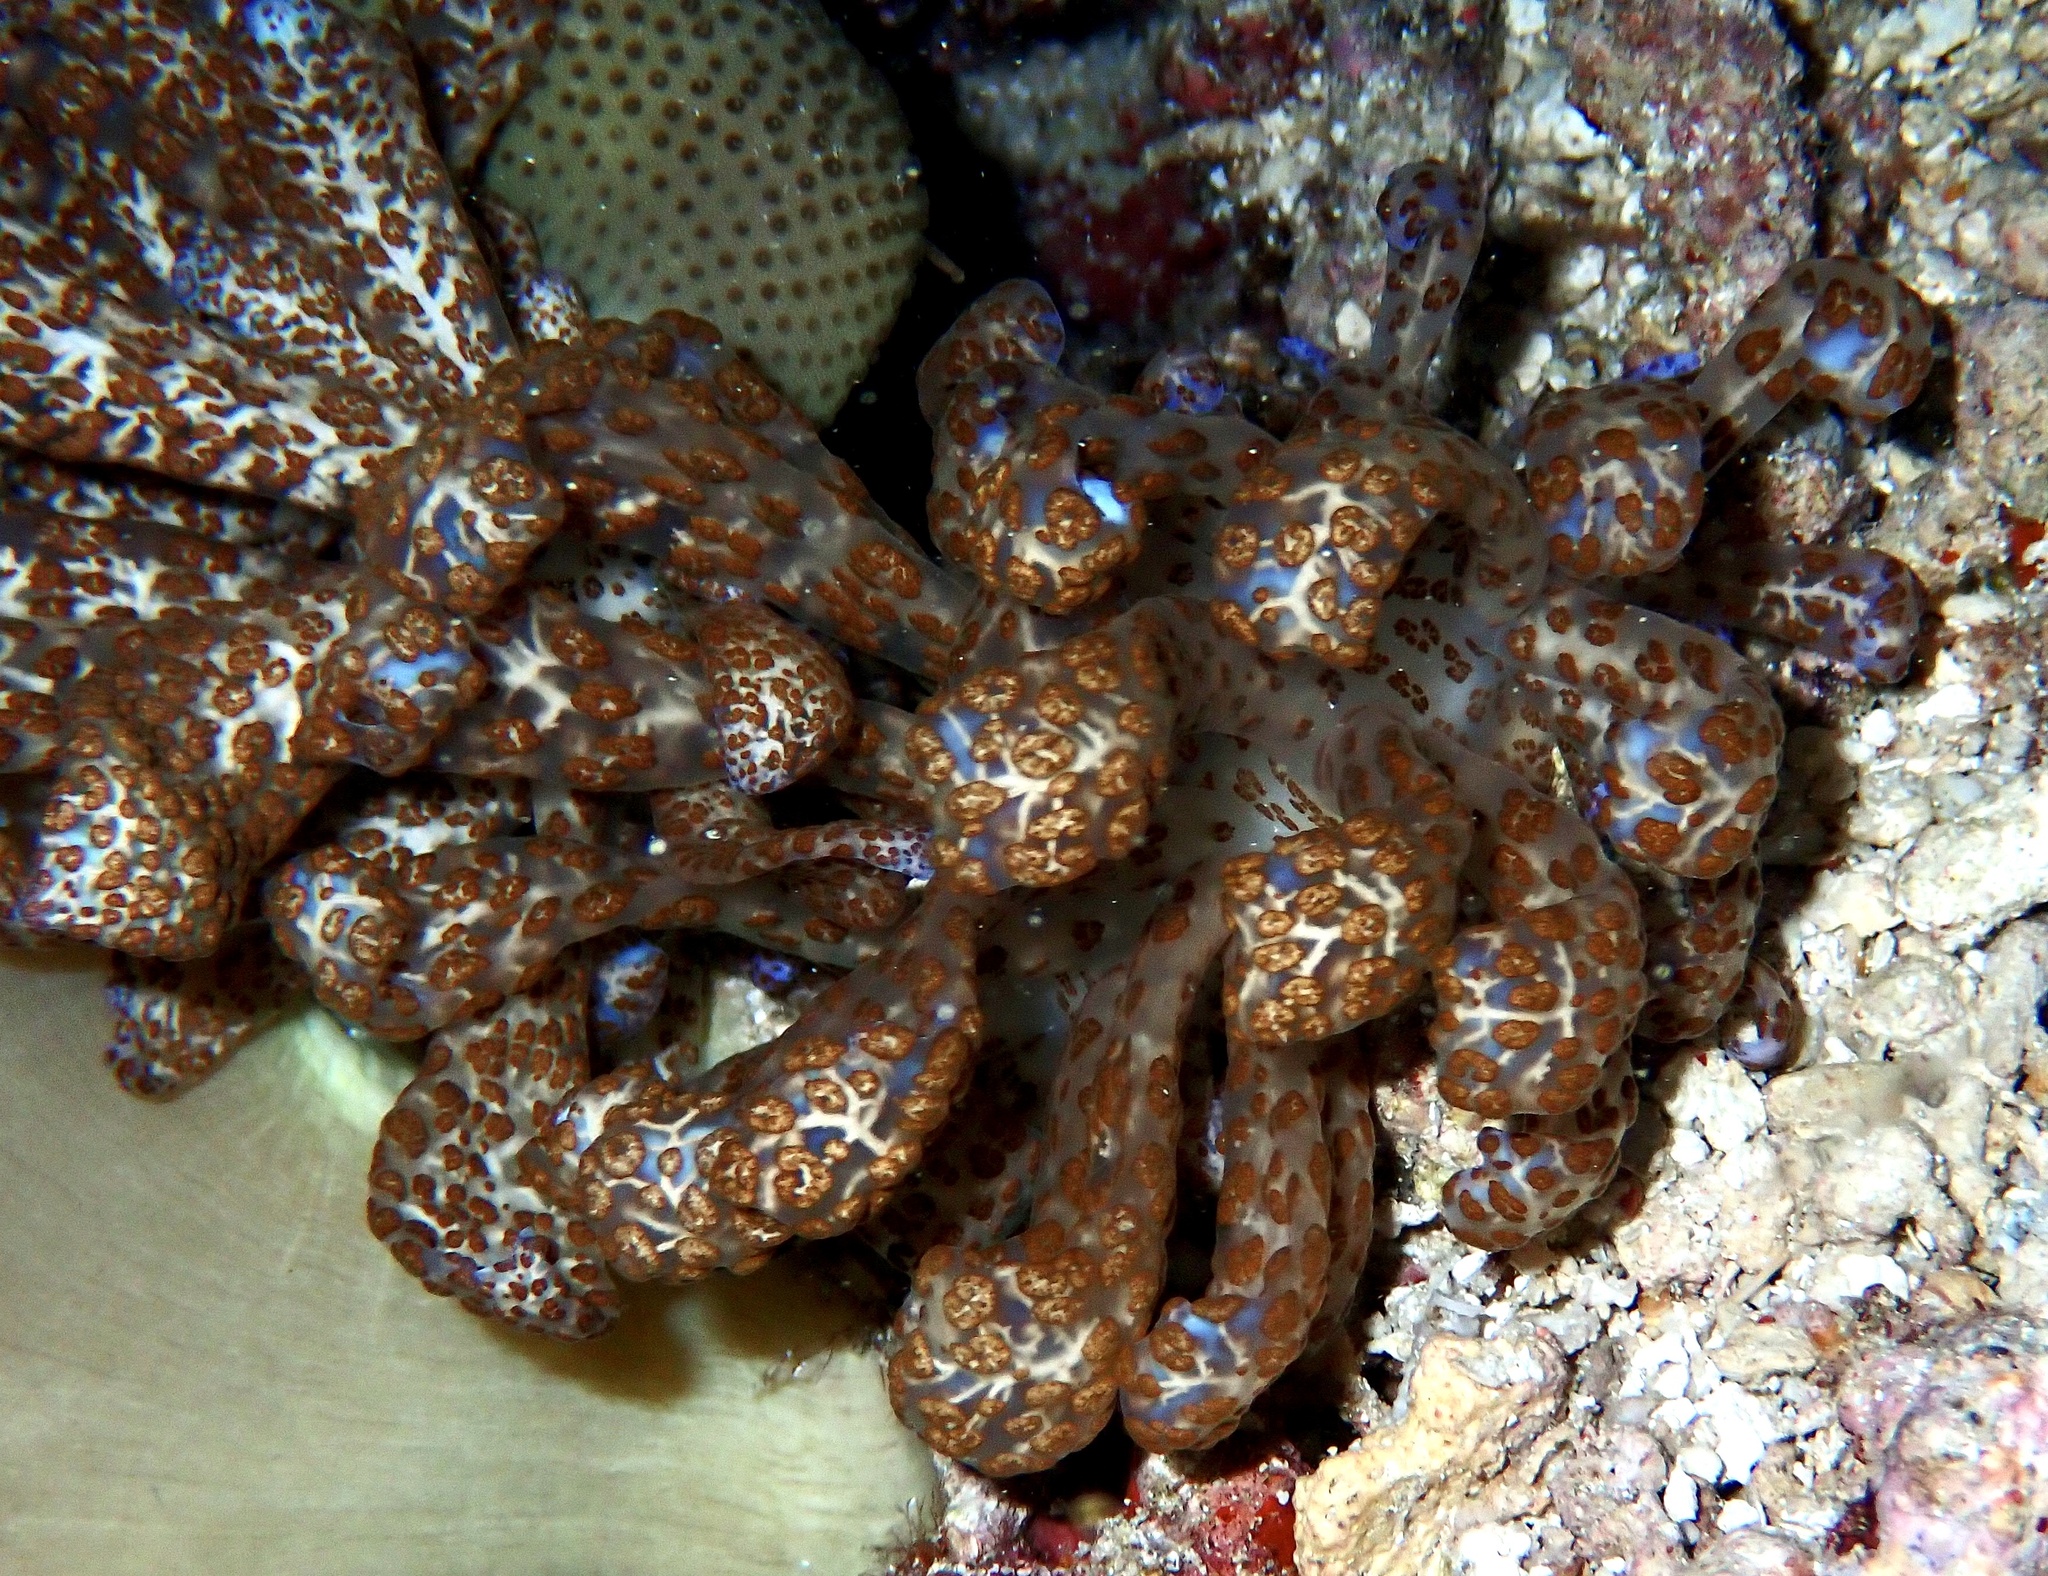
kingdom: Animalia
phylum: Mollusca
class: Gastropoda
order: Nudibranchia
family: Myrrhinidae
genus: Phyllodesmium
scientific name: Phyllodesmium longicirrum
